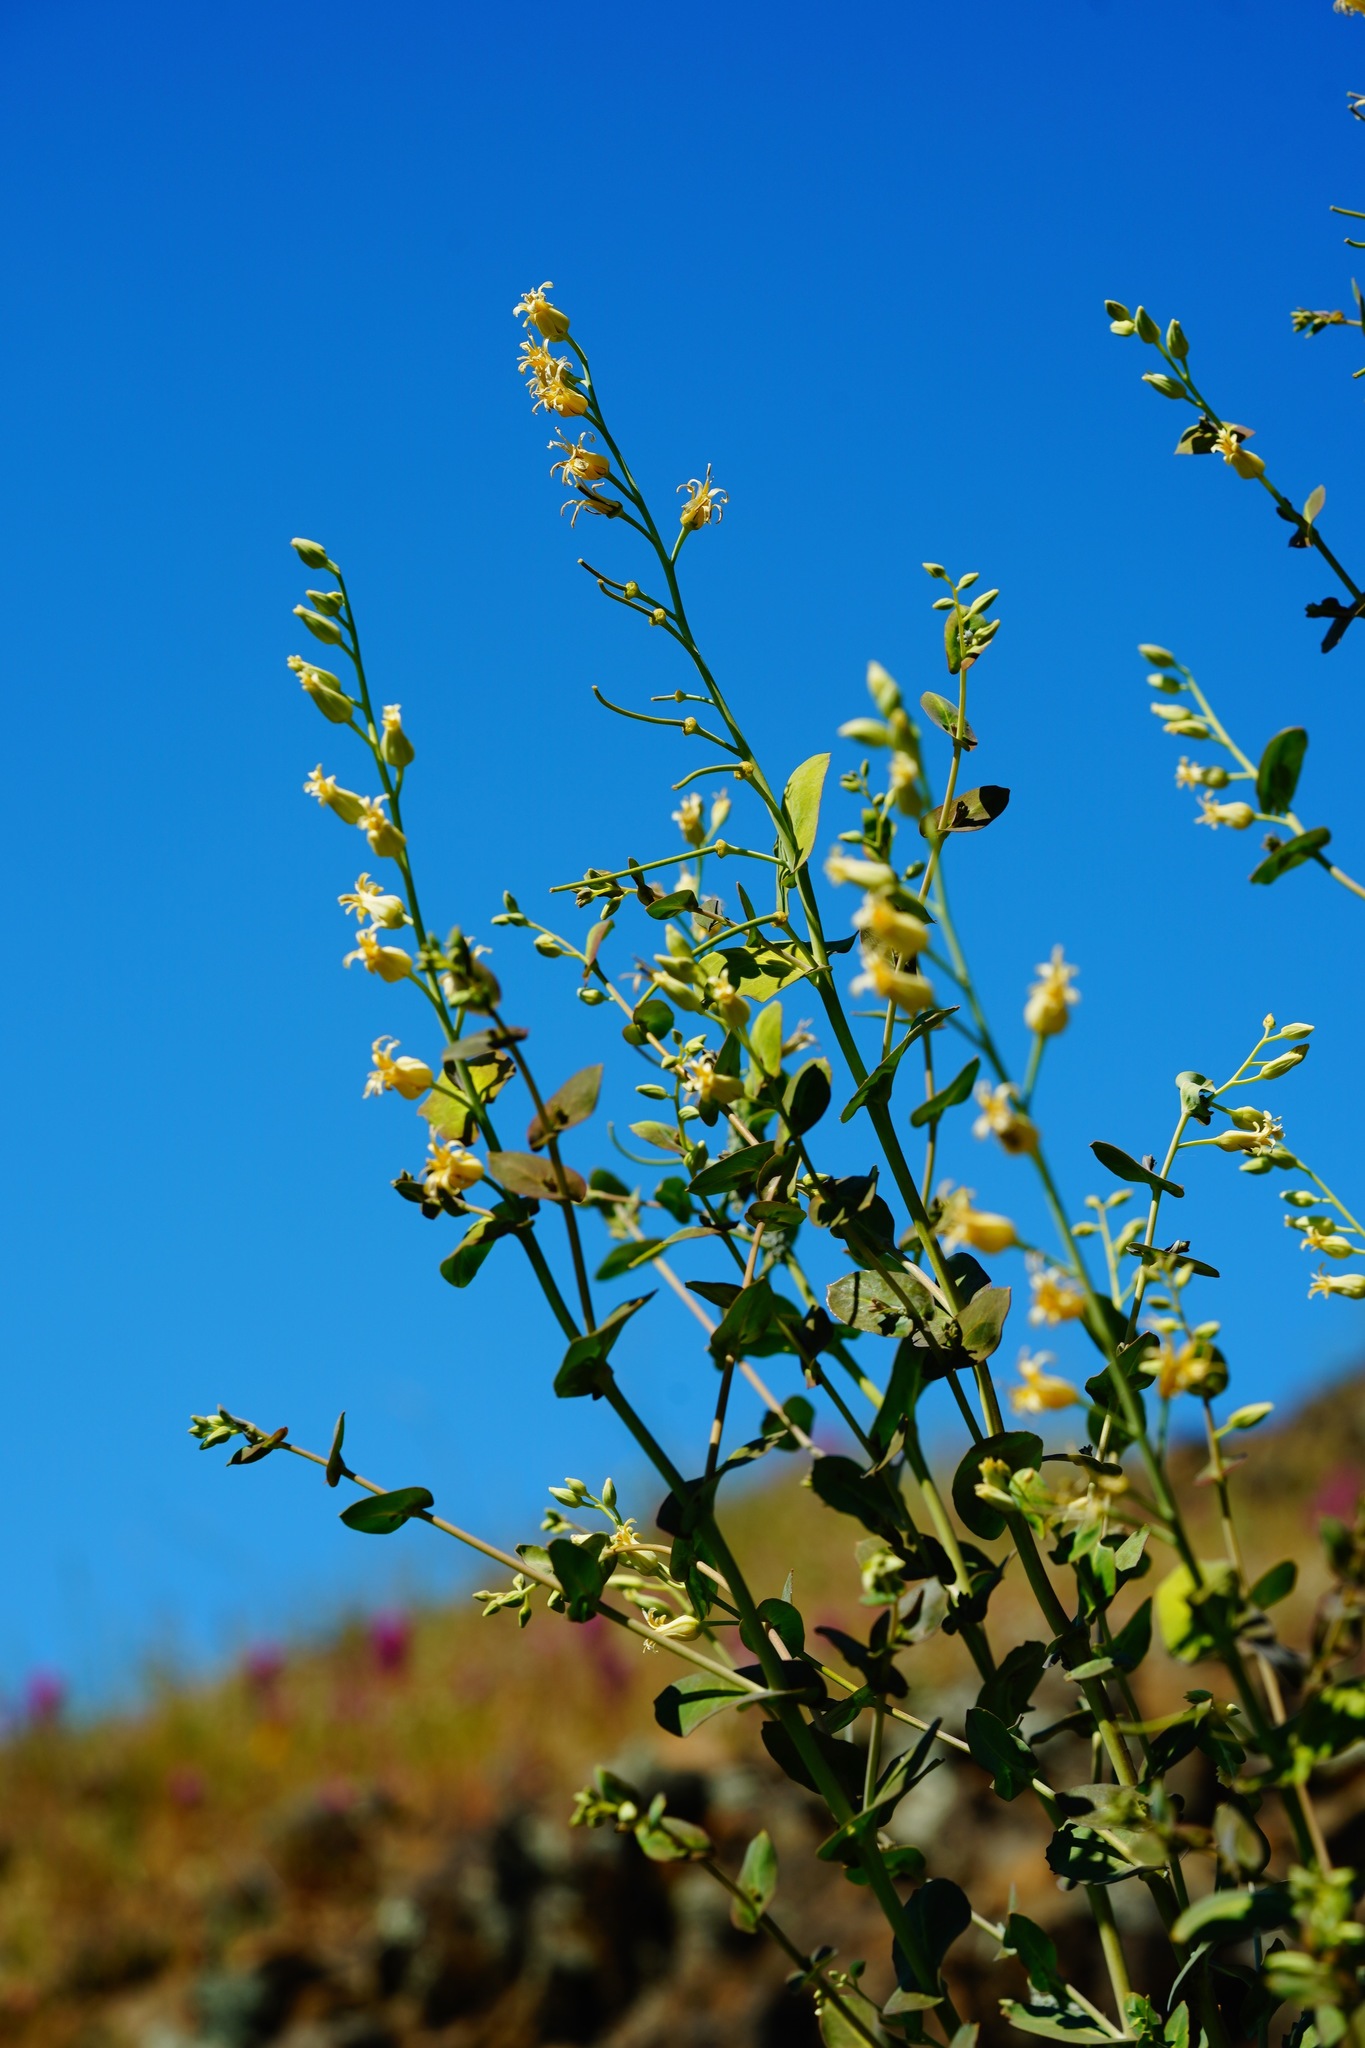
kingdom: Plantae
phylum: Tracheophyta
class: Magnoliopsida
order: Brassicales
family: Brassicaceae
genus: Streptanthus
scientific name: Streptanthus tortuosus
